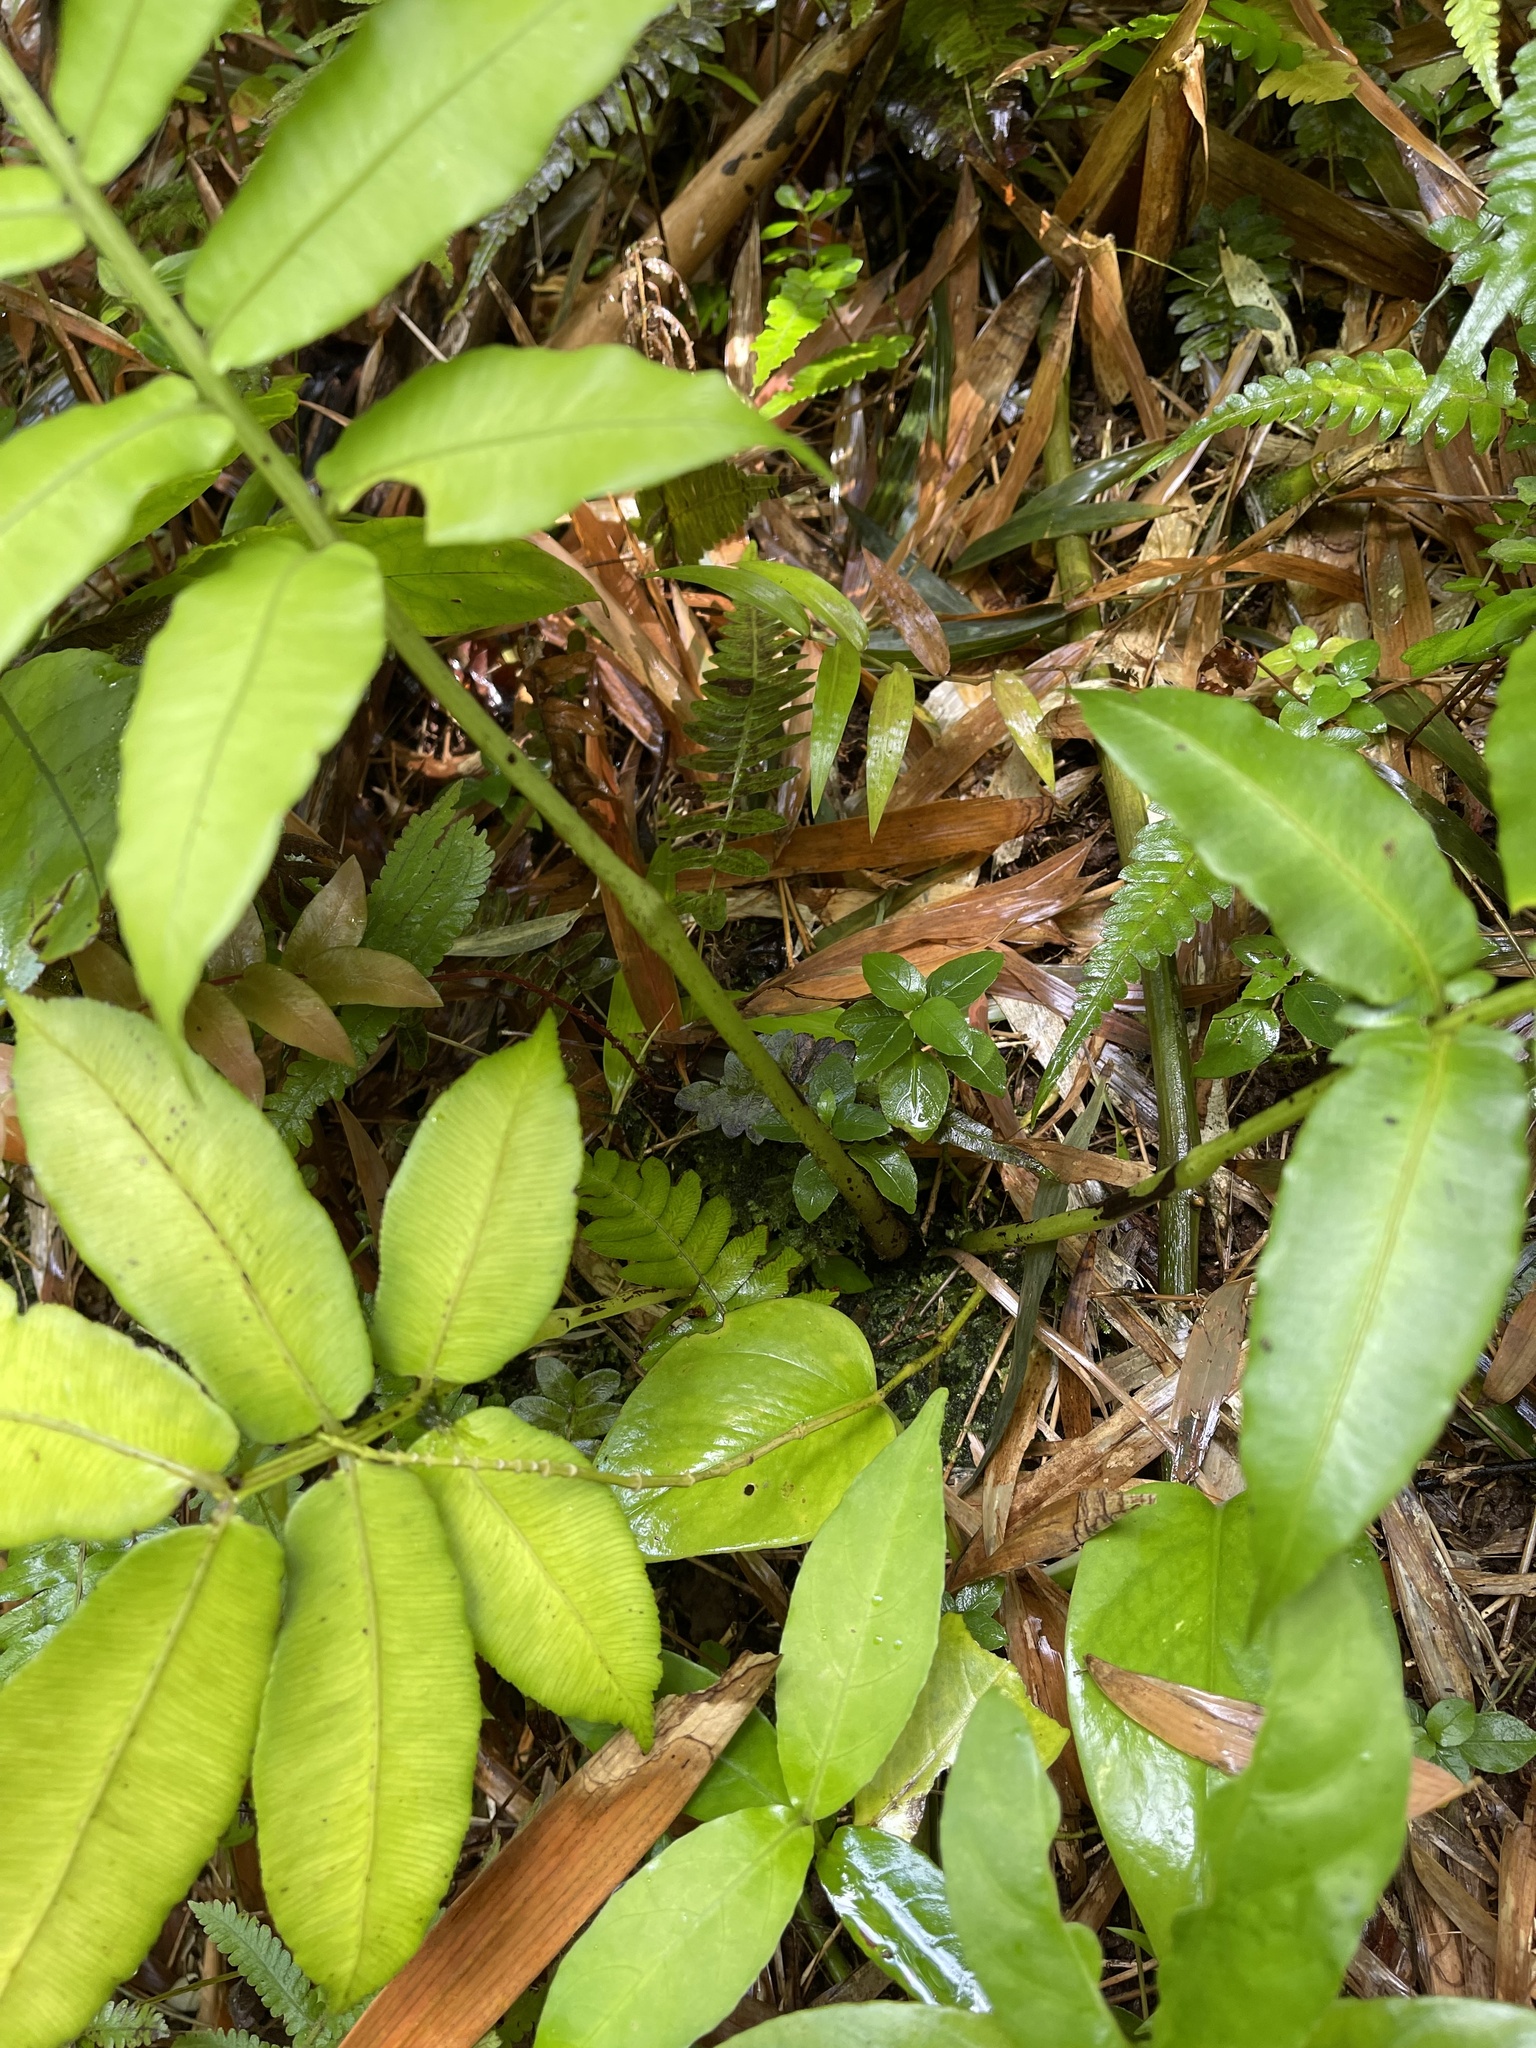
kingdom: Plantae
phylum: Tracheophyta
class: Polypodiopsida
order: Marattiales
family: Marattiaceae
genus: Angiopteris
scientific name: Angiopteris evecta
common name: Mule's-foot fern
